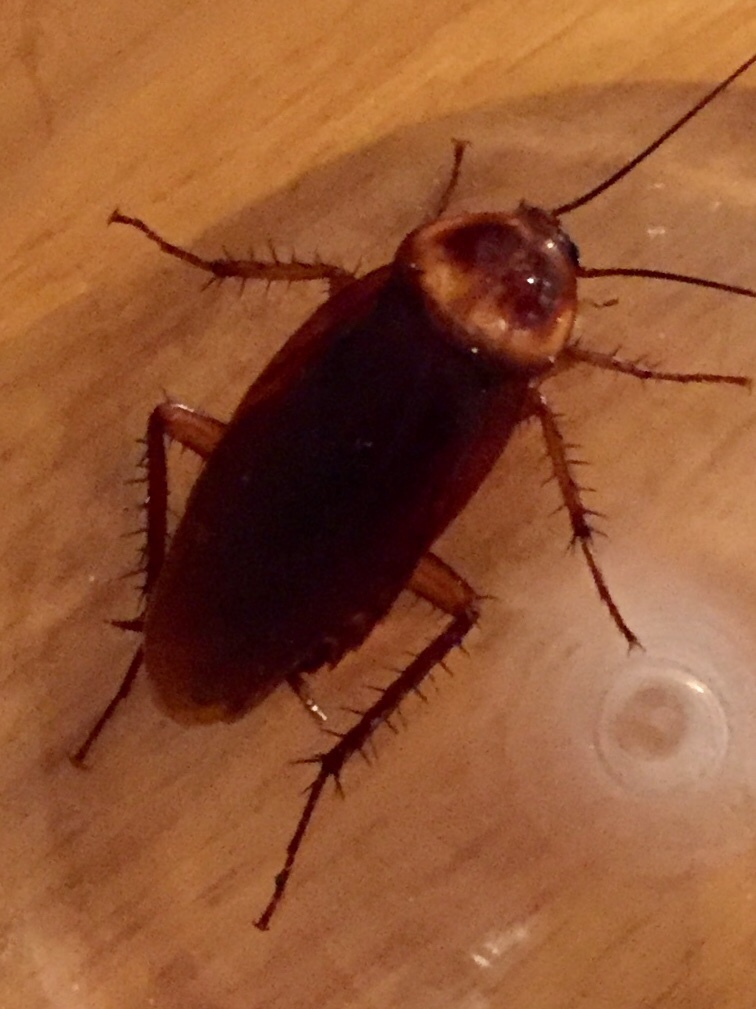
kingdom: Animalia
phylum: Arthropoda
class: Insecta
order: Blattodea
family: Blattidae
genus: Periplaneta
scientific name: Periplaneta americana
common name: American cockroach
